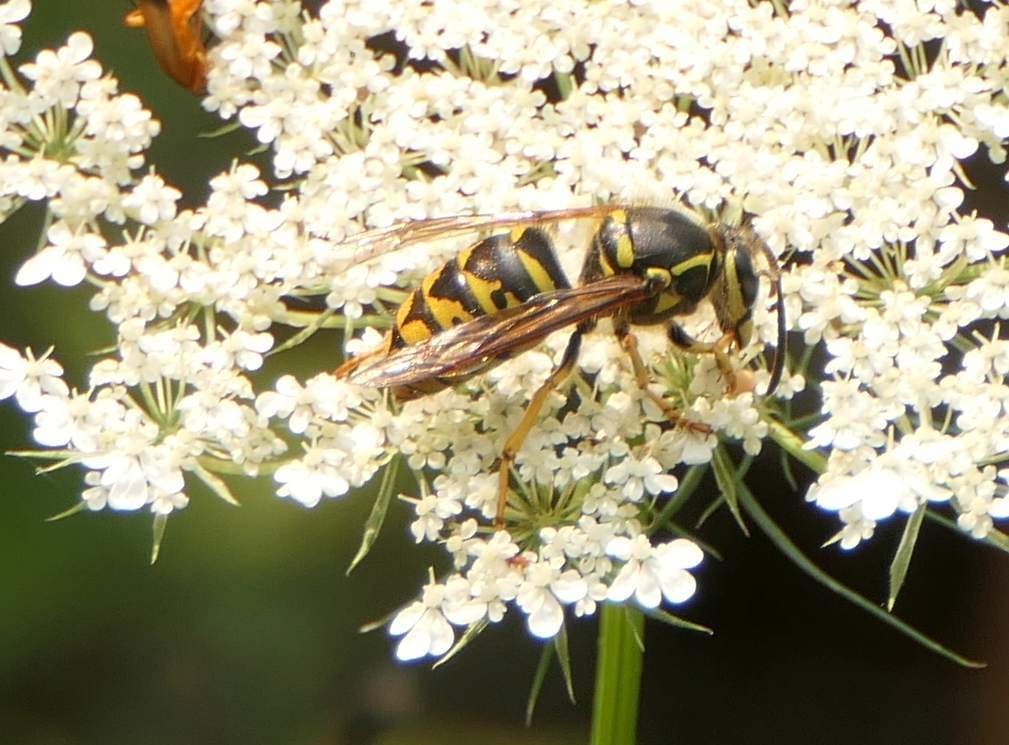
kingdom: Animalia
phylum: Arthropoda
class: Insecta
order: Hymenoptera
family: Vespidae
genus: Dolichovespula
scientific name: Dolichovespula arenaria
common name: Aerial yellowjacket
